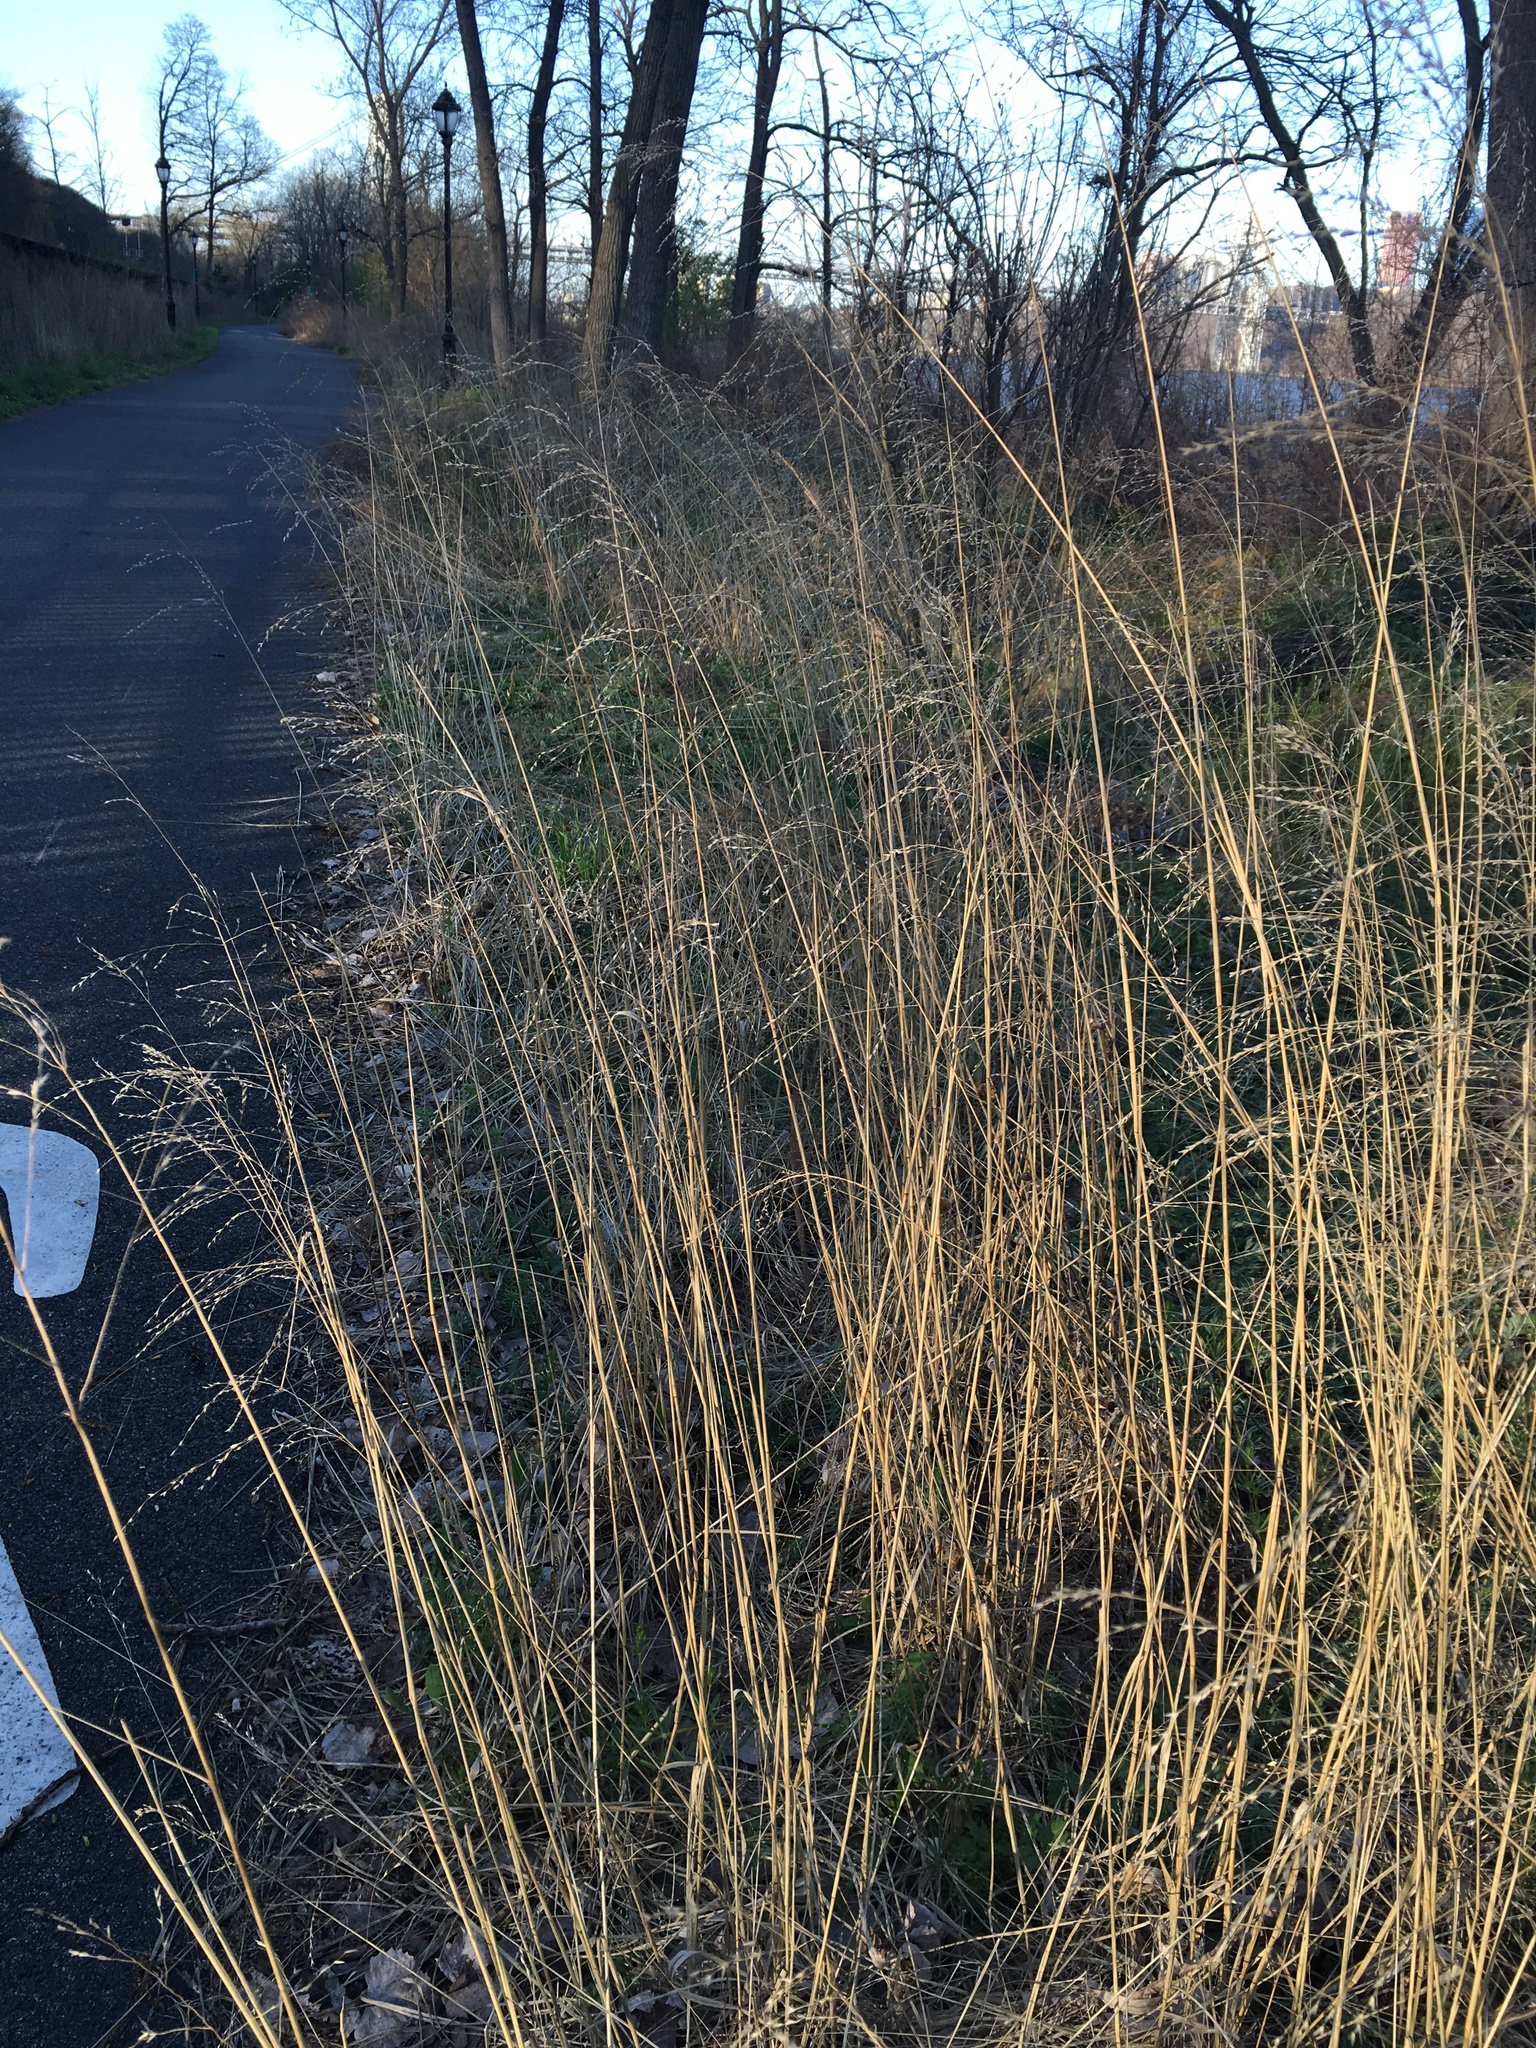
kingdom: Plantae
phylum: Tracheophyta
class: Liliopsida
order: Poales
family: Poaceae
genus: Tridens
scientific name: Tridens flavus
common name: Purpletop
